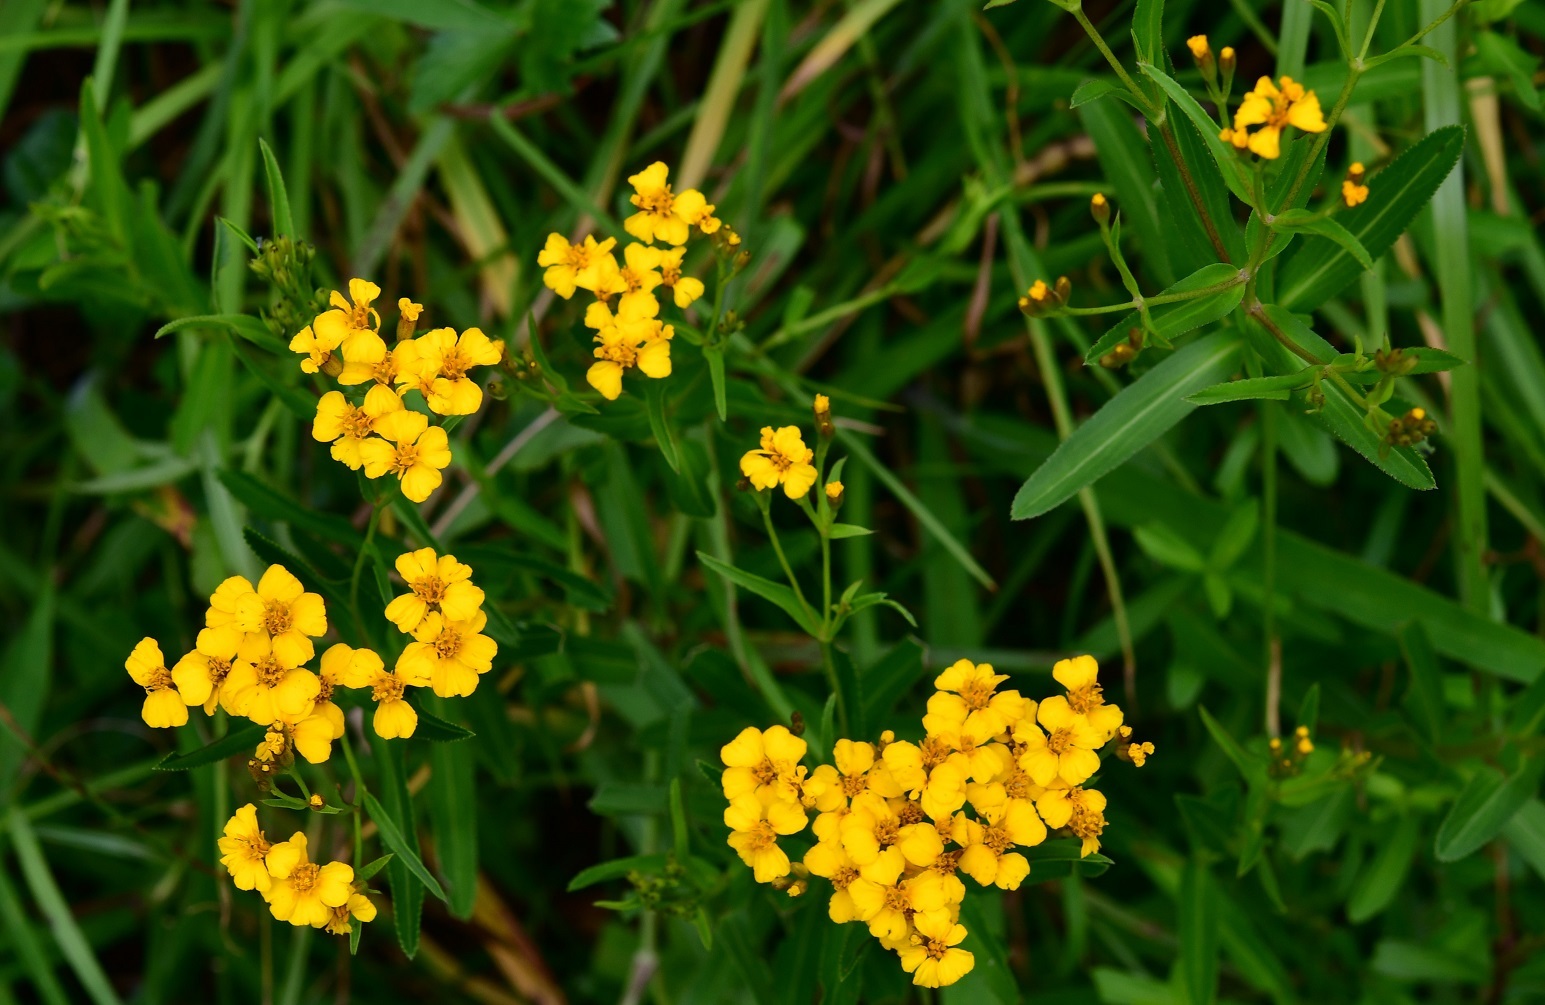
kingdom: Plantae
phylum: Tracheophyta
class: Magnoliopsida
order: Asterales
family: Asteraceae
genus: Tagetes
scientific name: Tagetes lucida
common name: Sweetscented marigold
